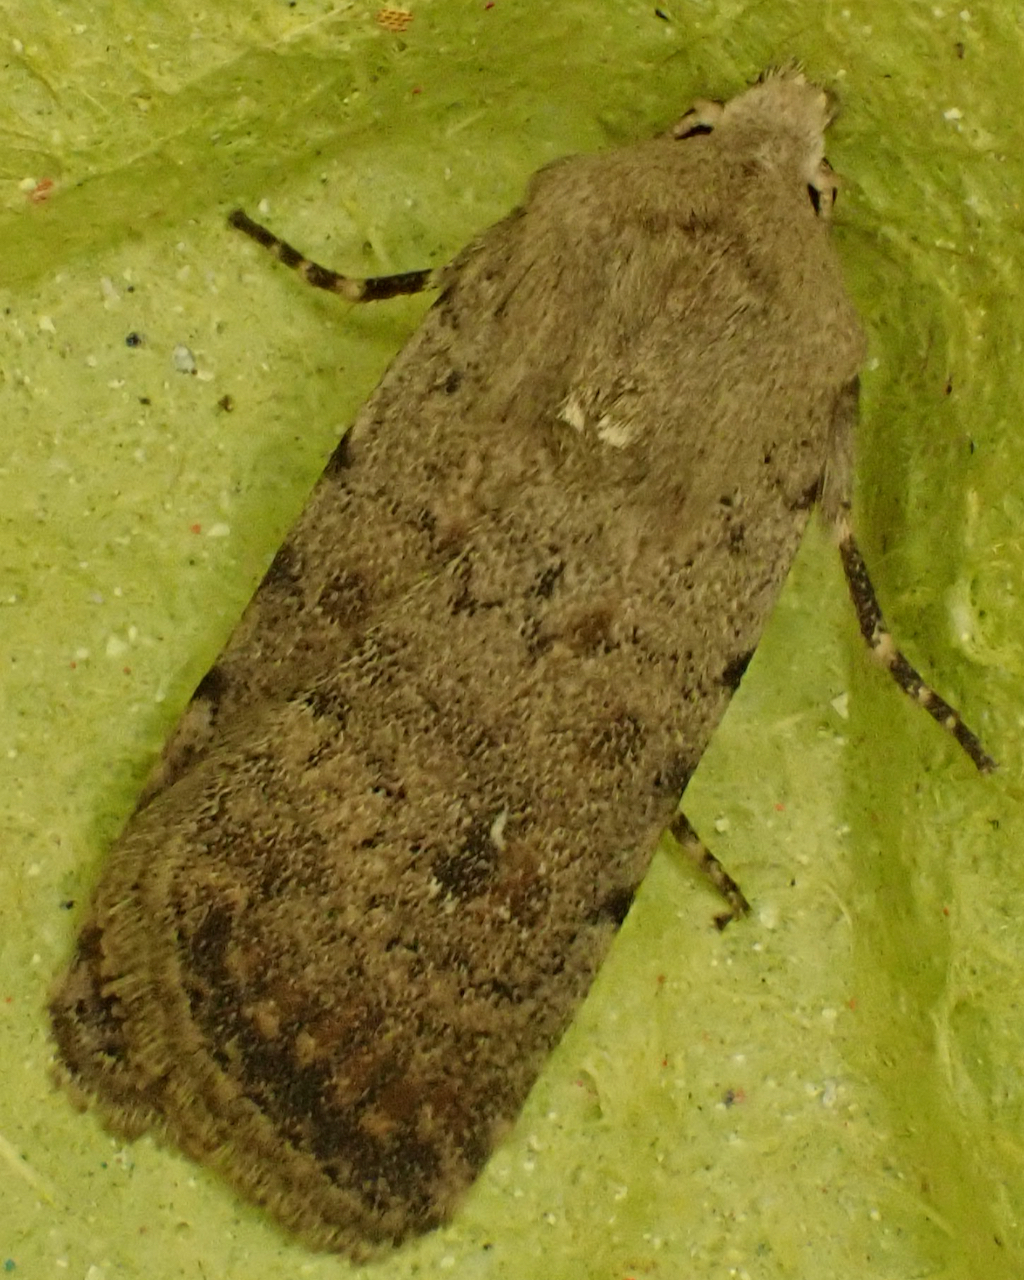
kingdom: Animalia
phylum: Arthropoda
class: Insecta
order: Lepidoptera
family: Noctuidae
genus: Caradrina
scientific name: Caradrina clavipalpis
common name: Pale mottled willow
